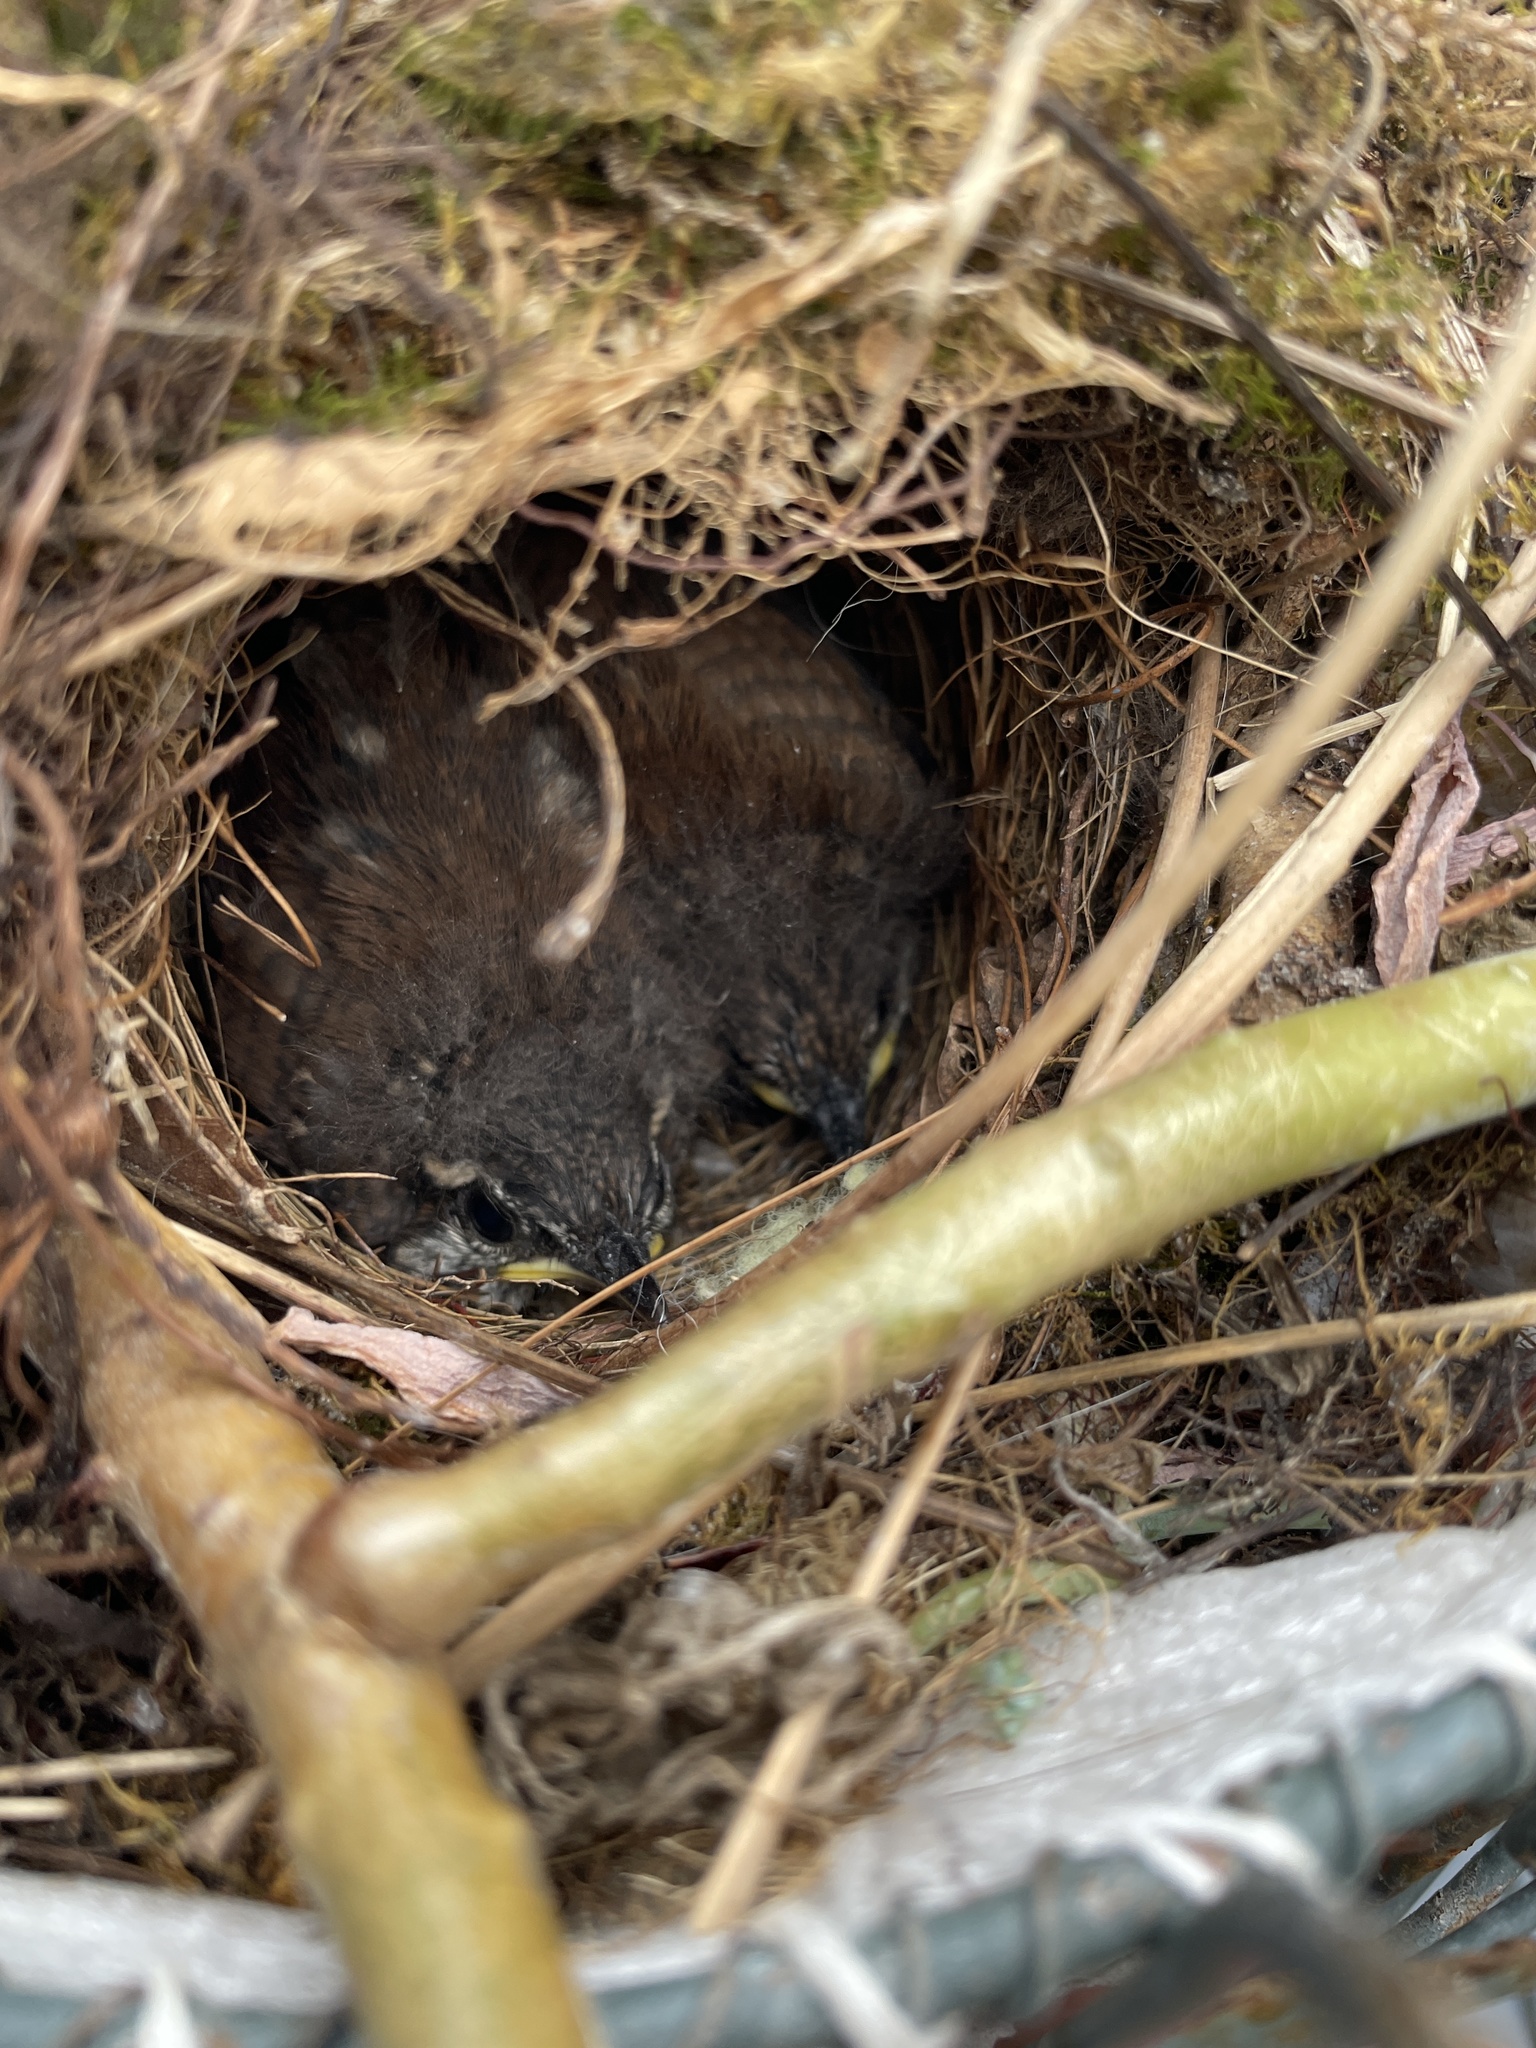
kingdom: Animalia
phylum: Chordata
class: Aves
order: Passeriformes
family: Troglodytidae
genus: Thryothorus
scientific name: Thryothorus ludovicianus
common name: Carolina wren
